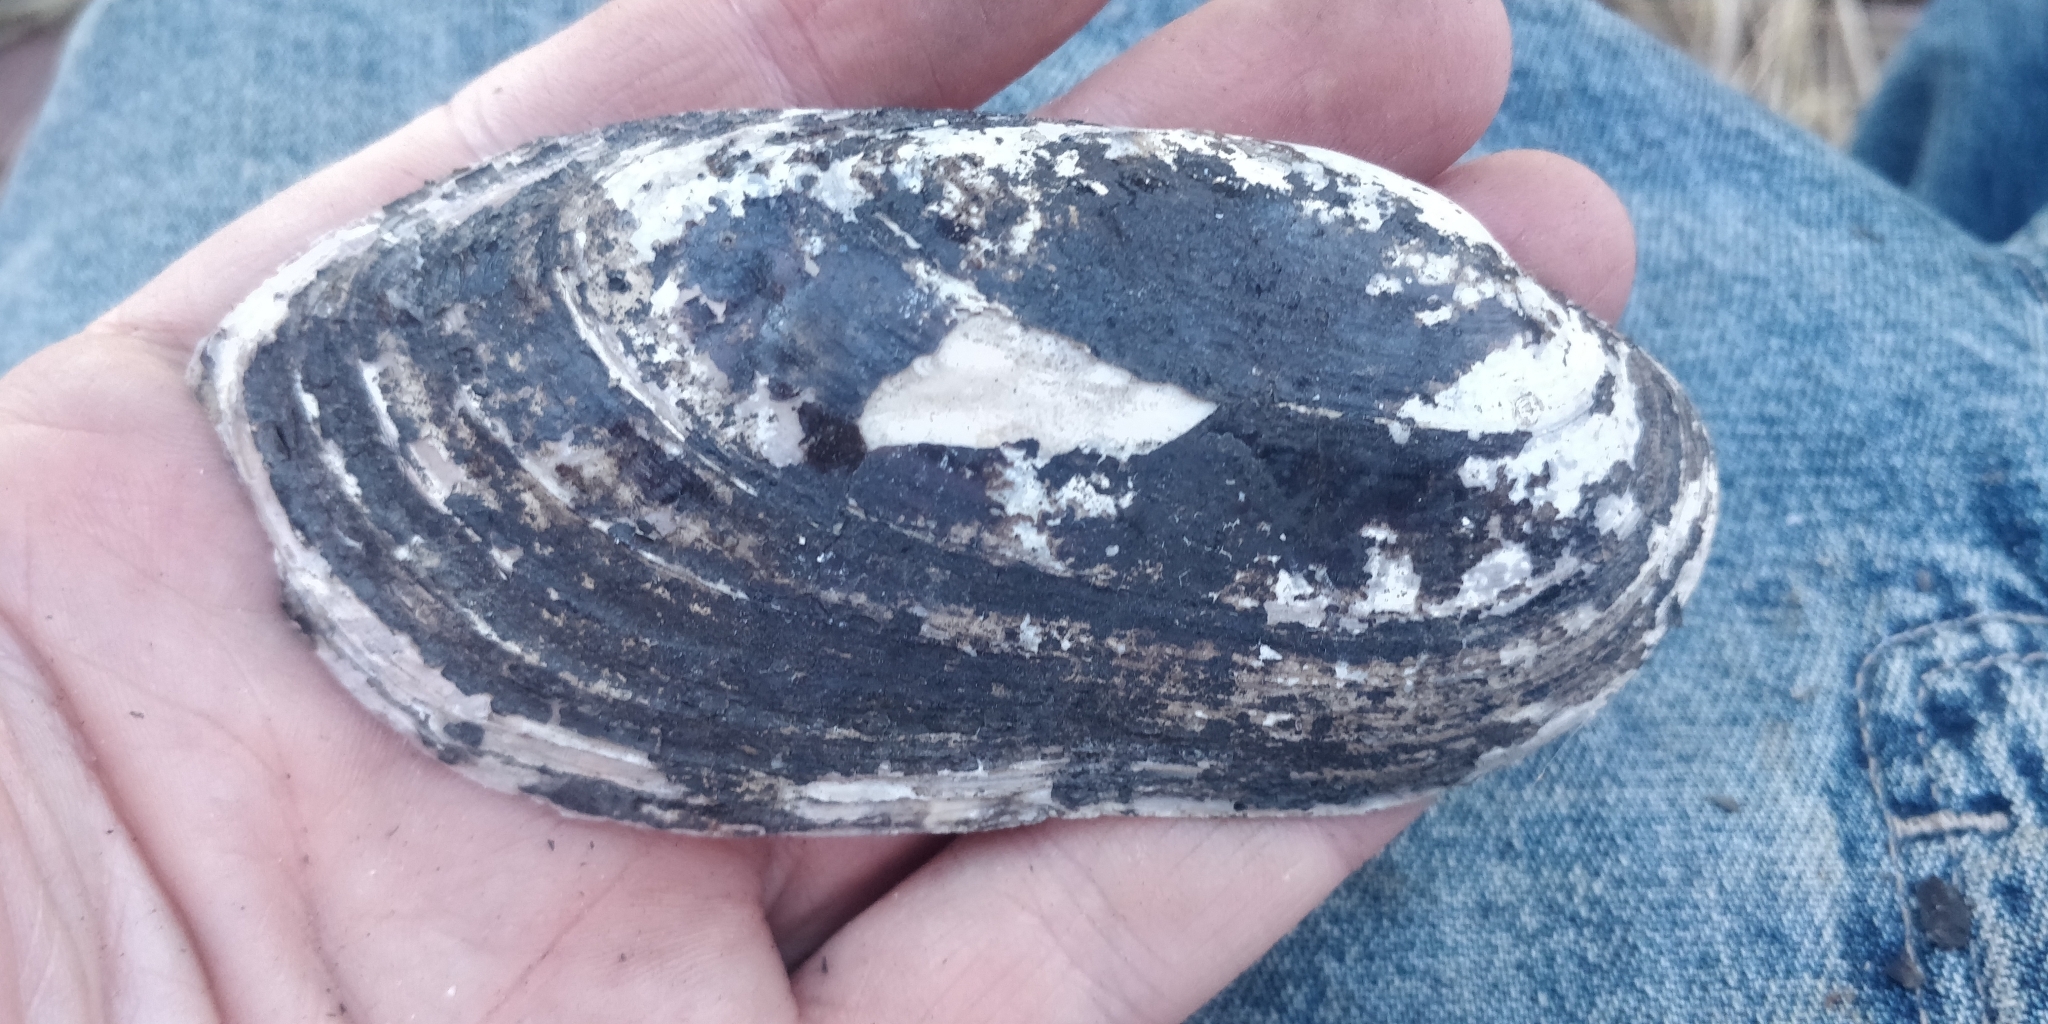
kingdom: Animalia
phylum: Mollusca
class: Bivalvia
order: Unionida
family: Unionidae
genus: Ligumia
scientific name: Ligumia recta
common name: Black sandshell
